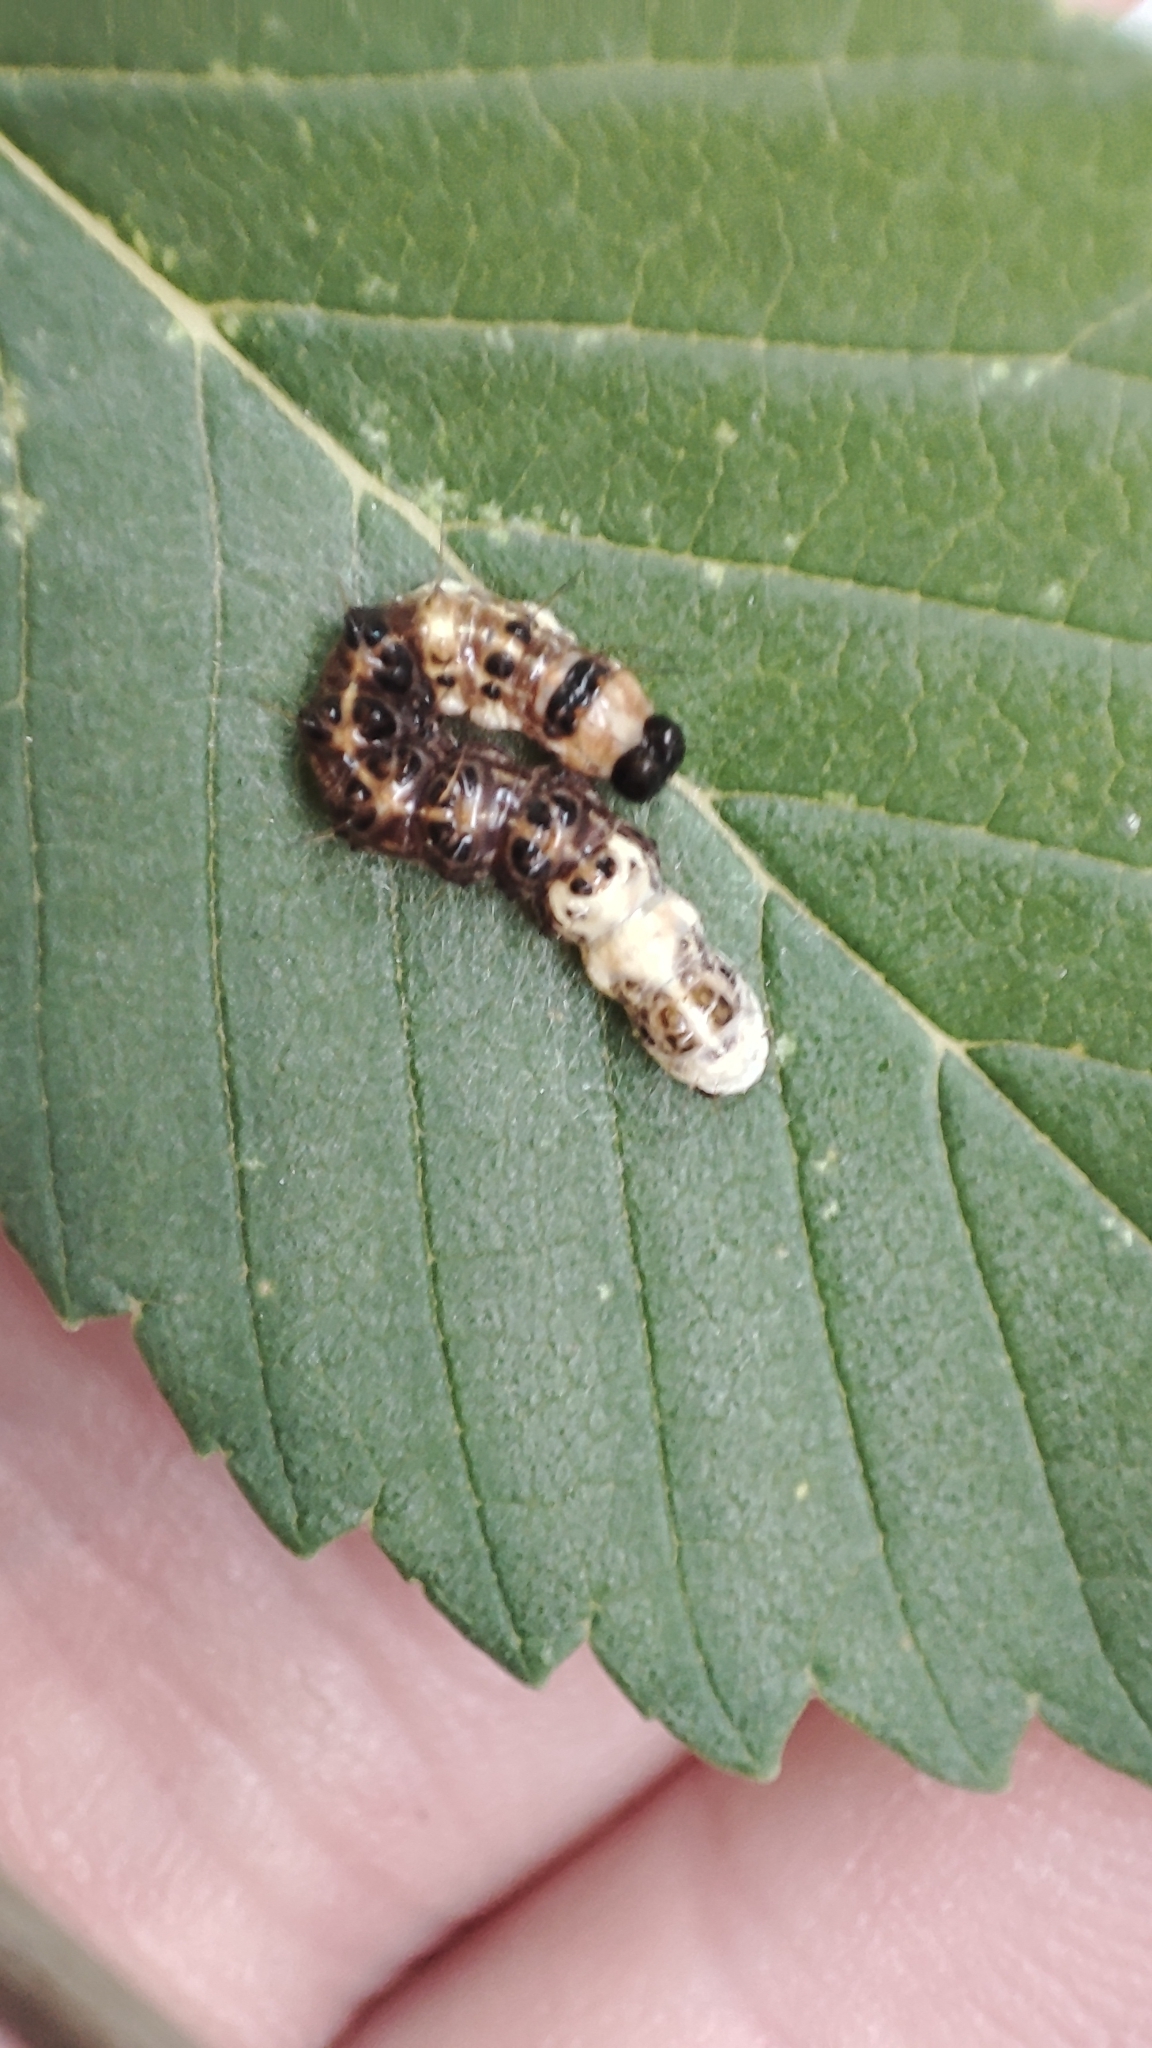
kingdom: Animalia
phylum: Arthropoda
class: Insecta
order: Lepidoptera
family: Noctuidae
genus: Acronicta
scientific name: Acronicta alni
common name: Alder moth
